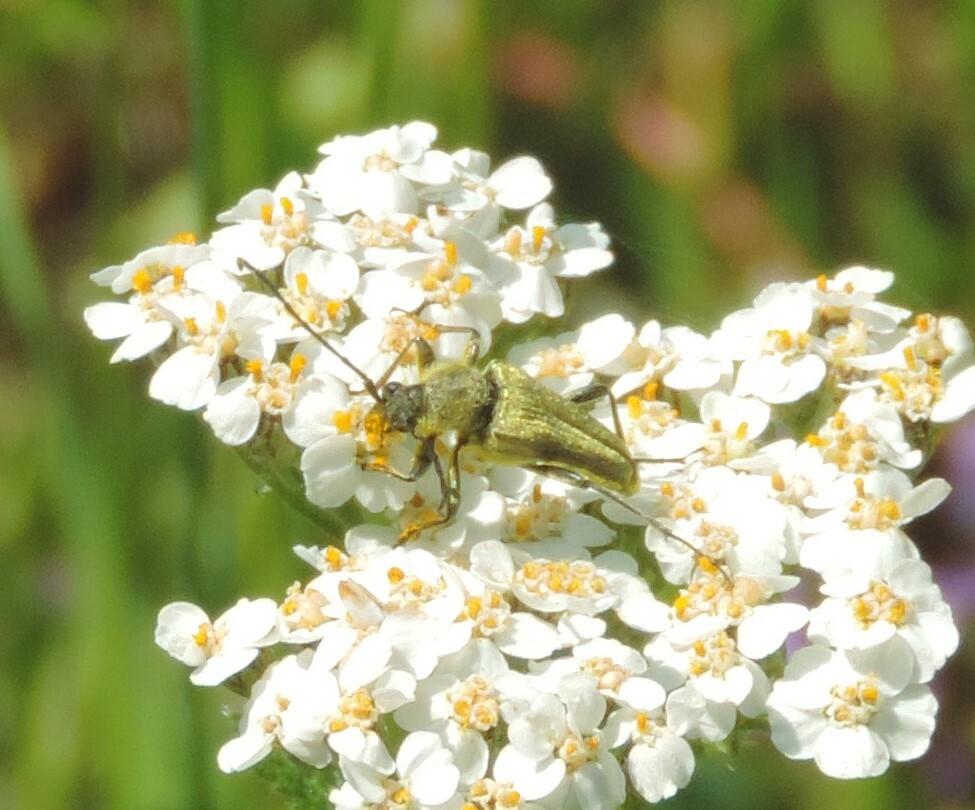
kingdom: Animalia
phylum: Arthropoda
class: Insecta
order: Coleoptera
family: Cerambycidae
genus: Cosmosalia
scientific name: Cosmosalia chrysocoma
